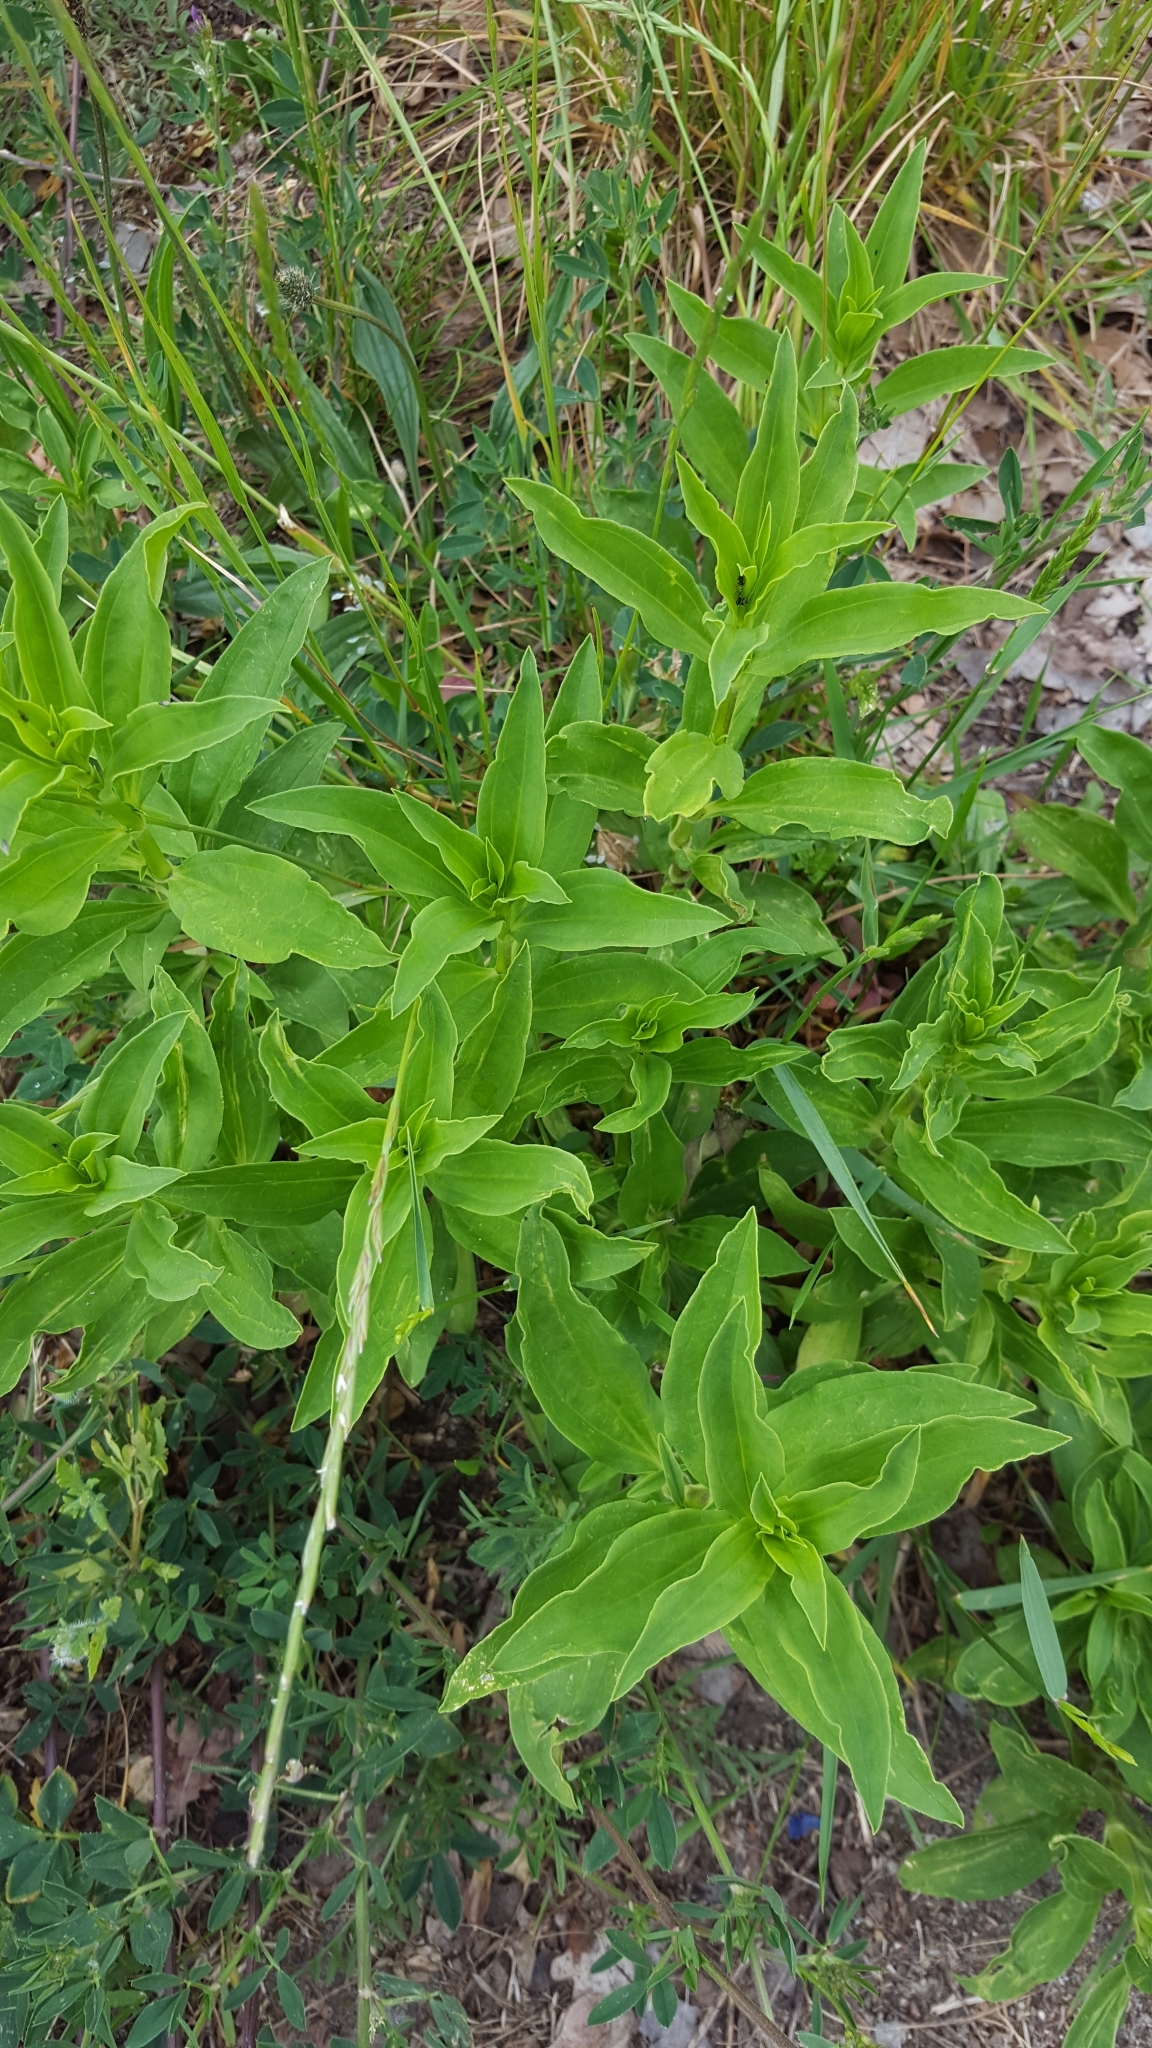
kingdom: Plantae
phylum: Tracheophyta
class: Magnoliopsida
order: Caryophyllales
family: Caryophyllaceae
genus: Saponaria
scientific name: Saponaria officinalis
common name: Soapwort
